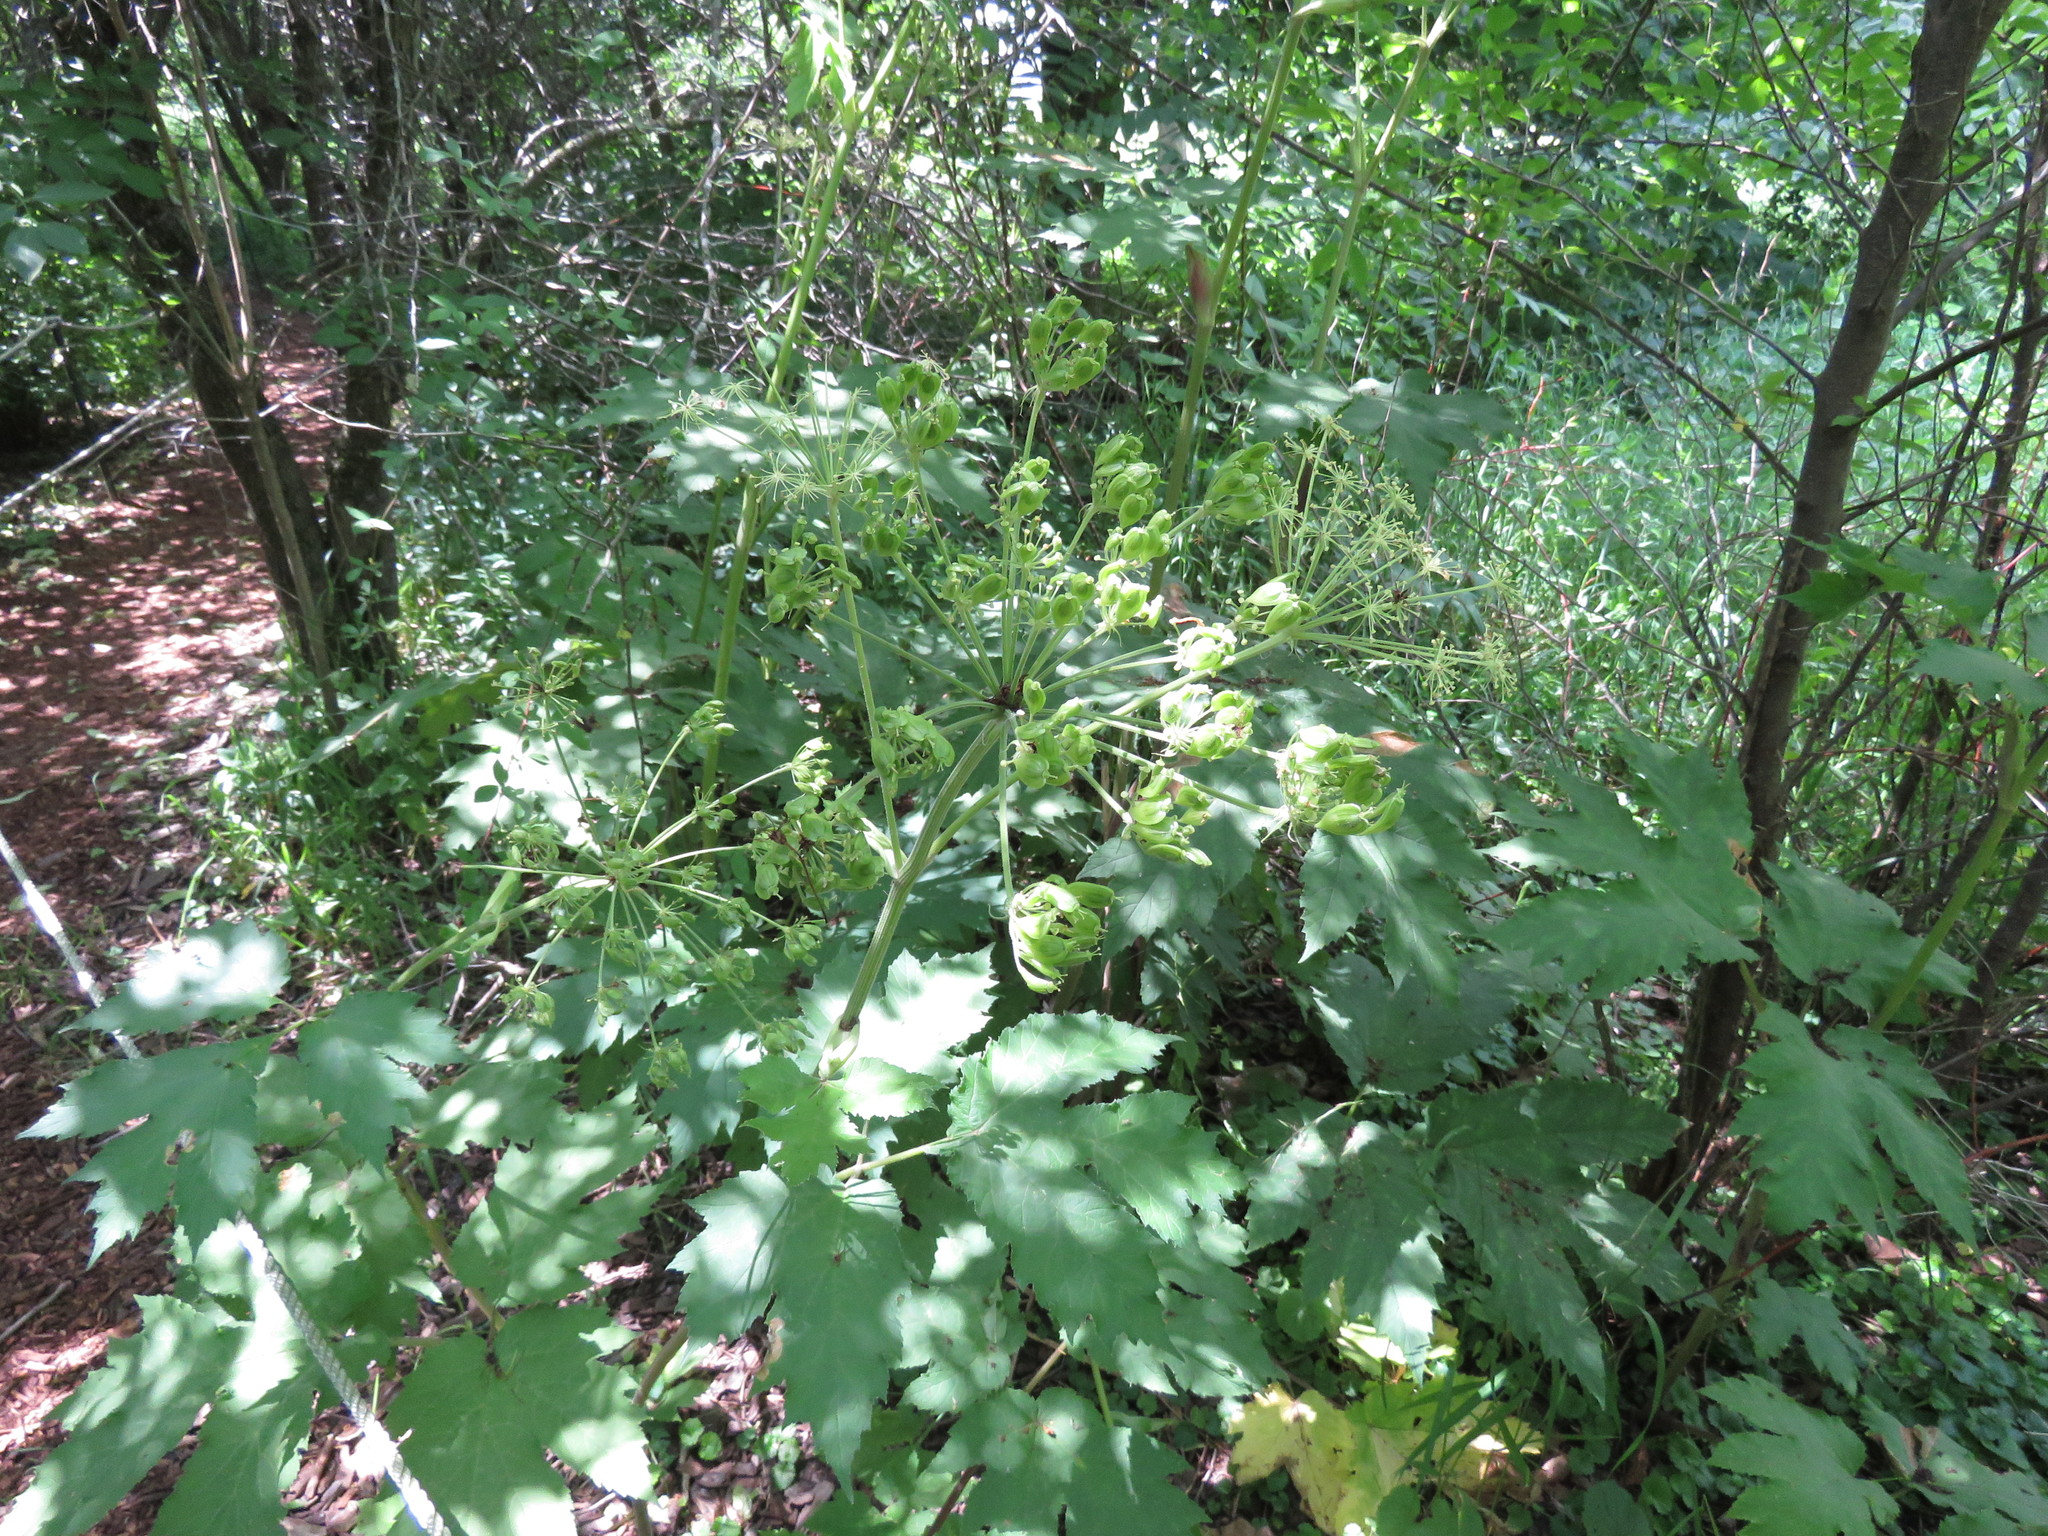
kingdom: Plantae
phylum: Tracheophyta
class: Magnoliopsida
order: Apiales
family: Apiaceae
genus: Heracleum
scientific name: Heracleum maximum
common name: American cow parsnip
